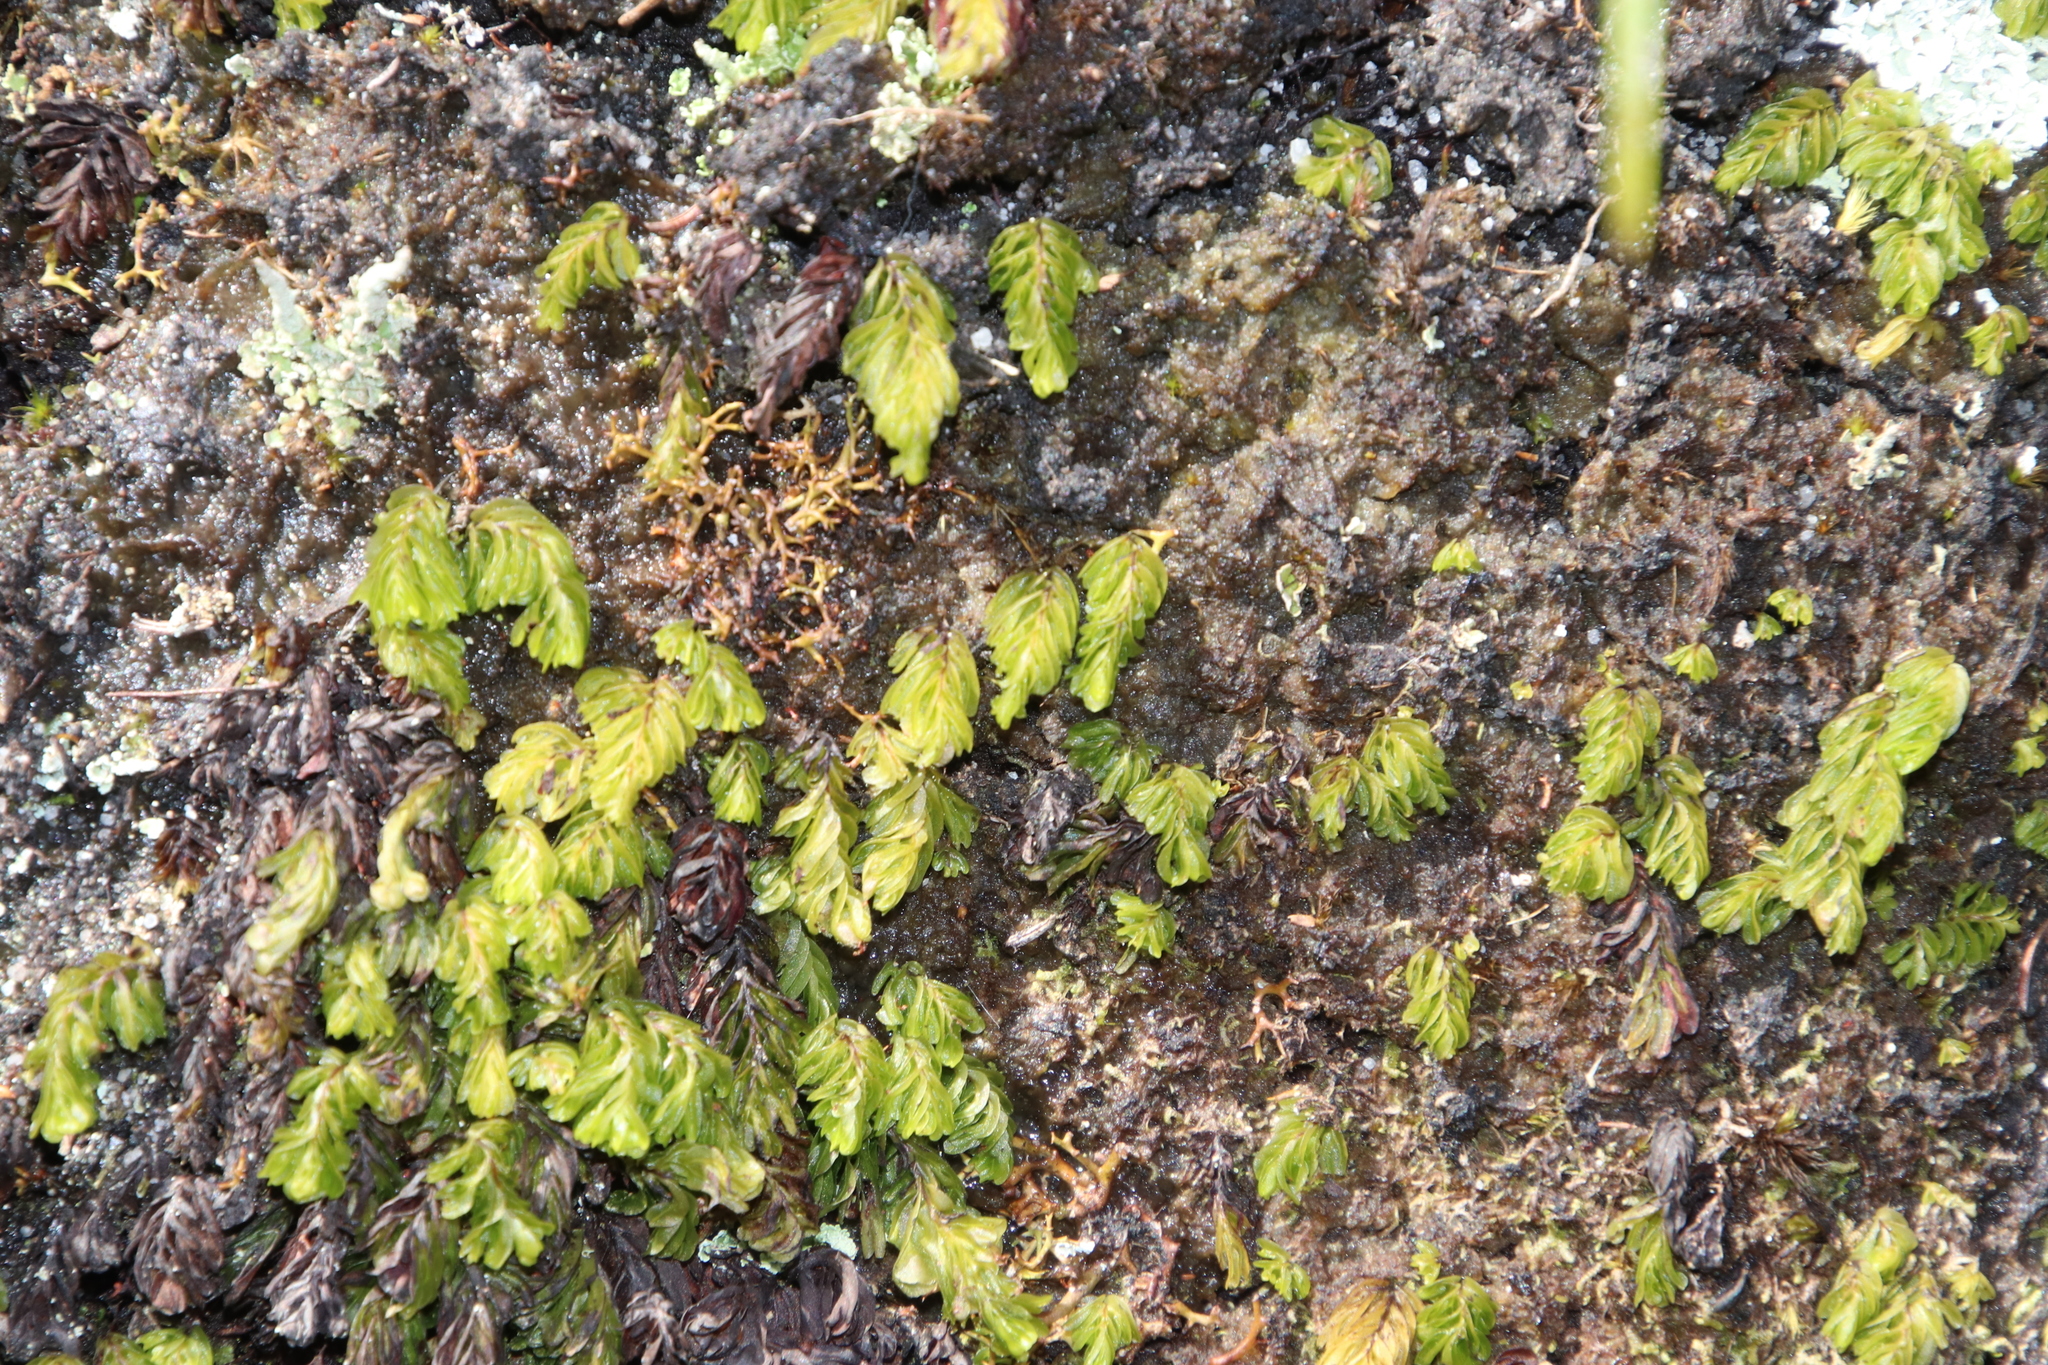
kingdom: Plantae
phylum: Tracheophyta
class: Polypodiopsida
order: Hymenophyllales
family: Hymenophyllaceae
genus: Hymenophyllum
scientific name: Hymenophyllum capense
